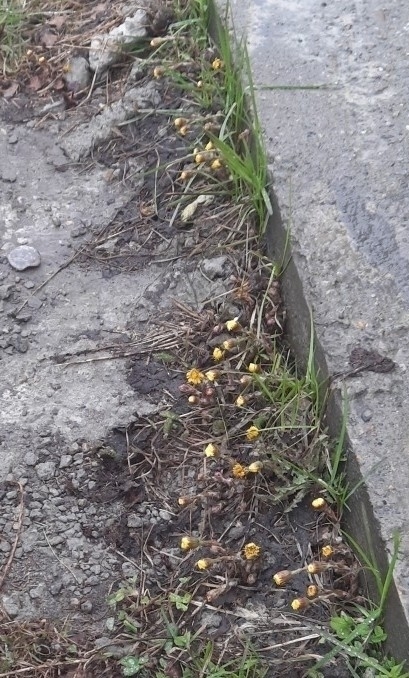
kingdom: Plantae
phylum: Tracheophyta
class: Magnoliopsida
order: Asterales
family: Asteraceae
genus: Tussilago
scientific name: Tussilago farfara
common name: Coltsfoot
